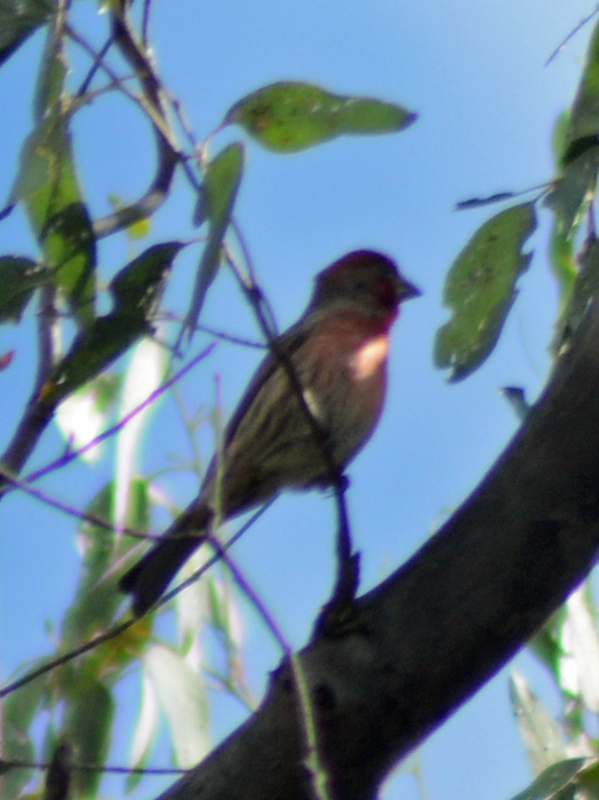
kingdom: Animalia
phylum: Chordata
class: Aves
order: Passeriformes
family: Fringillidae
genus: Haemorhous
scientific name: Haemorhous mexicanus
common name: House finch
